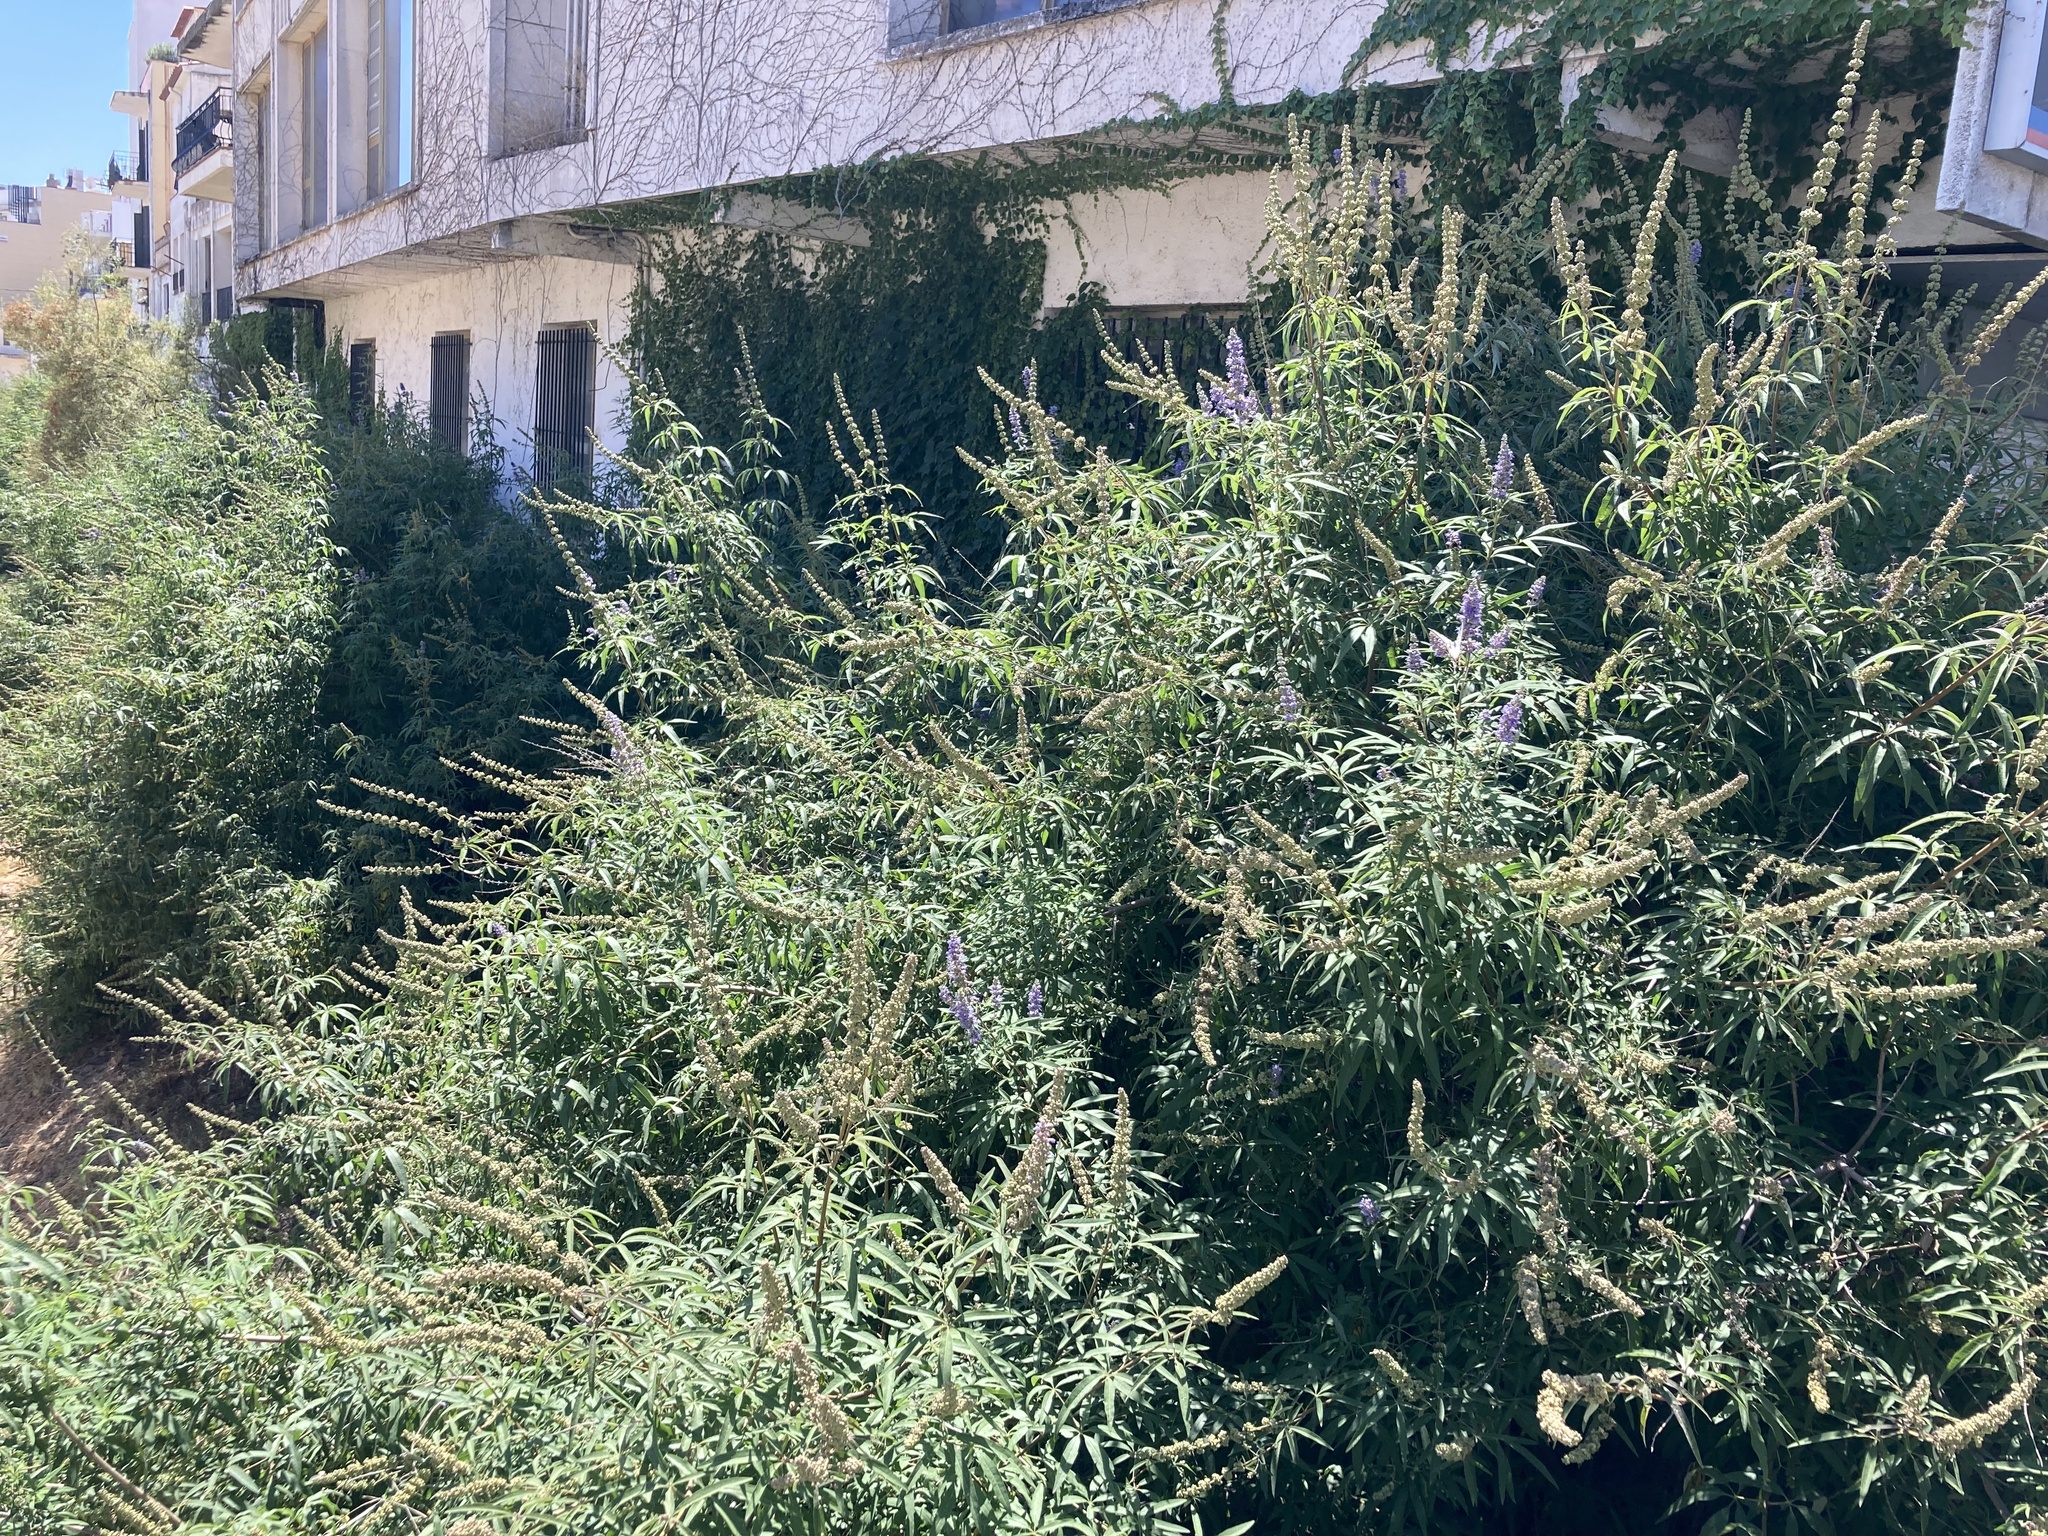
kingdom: Plantae
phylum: Tracheophyta
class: Magnoliopsida
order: Lamiales
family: Lamiaceae
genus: Vitex
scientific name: Vitex agnus-castus
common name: Chasteberry
